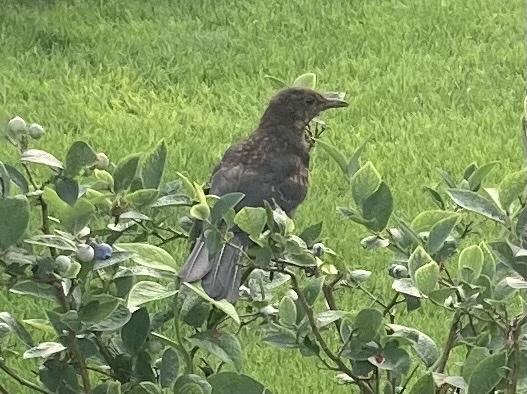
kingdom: Animalia
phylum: Chordata
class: Aves
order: Passeriformes
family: Turdidae
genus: Turdus
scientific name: Turdus merula
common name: Common blackbird
